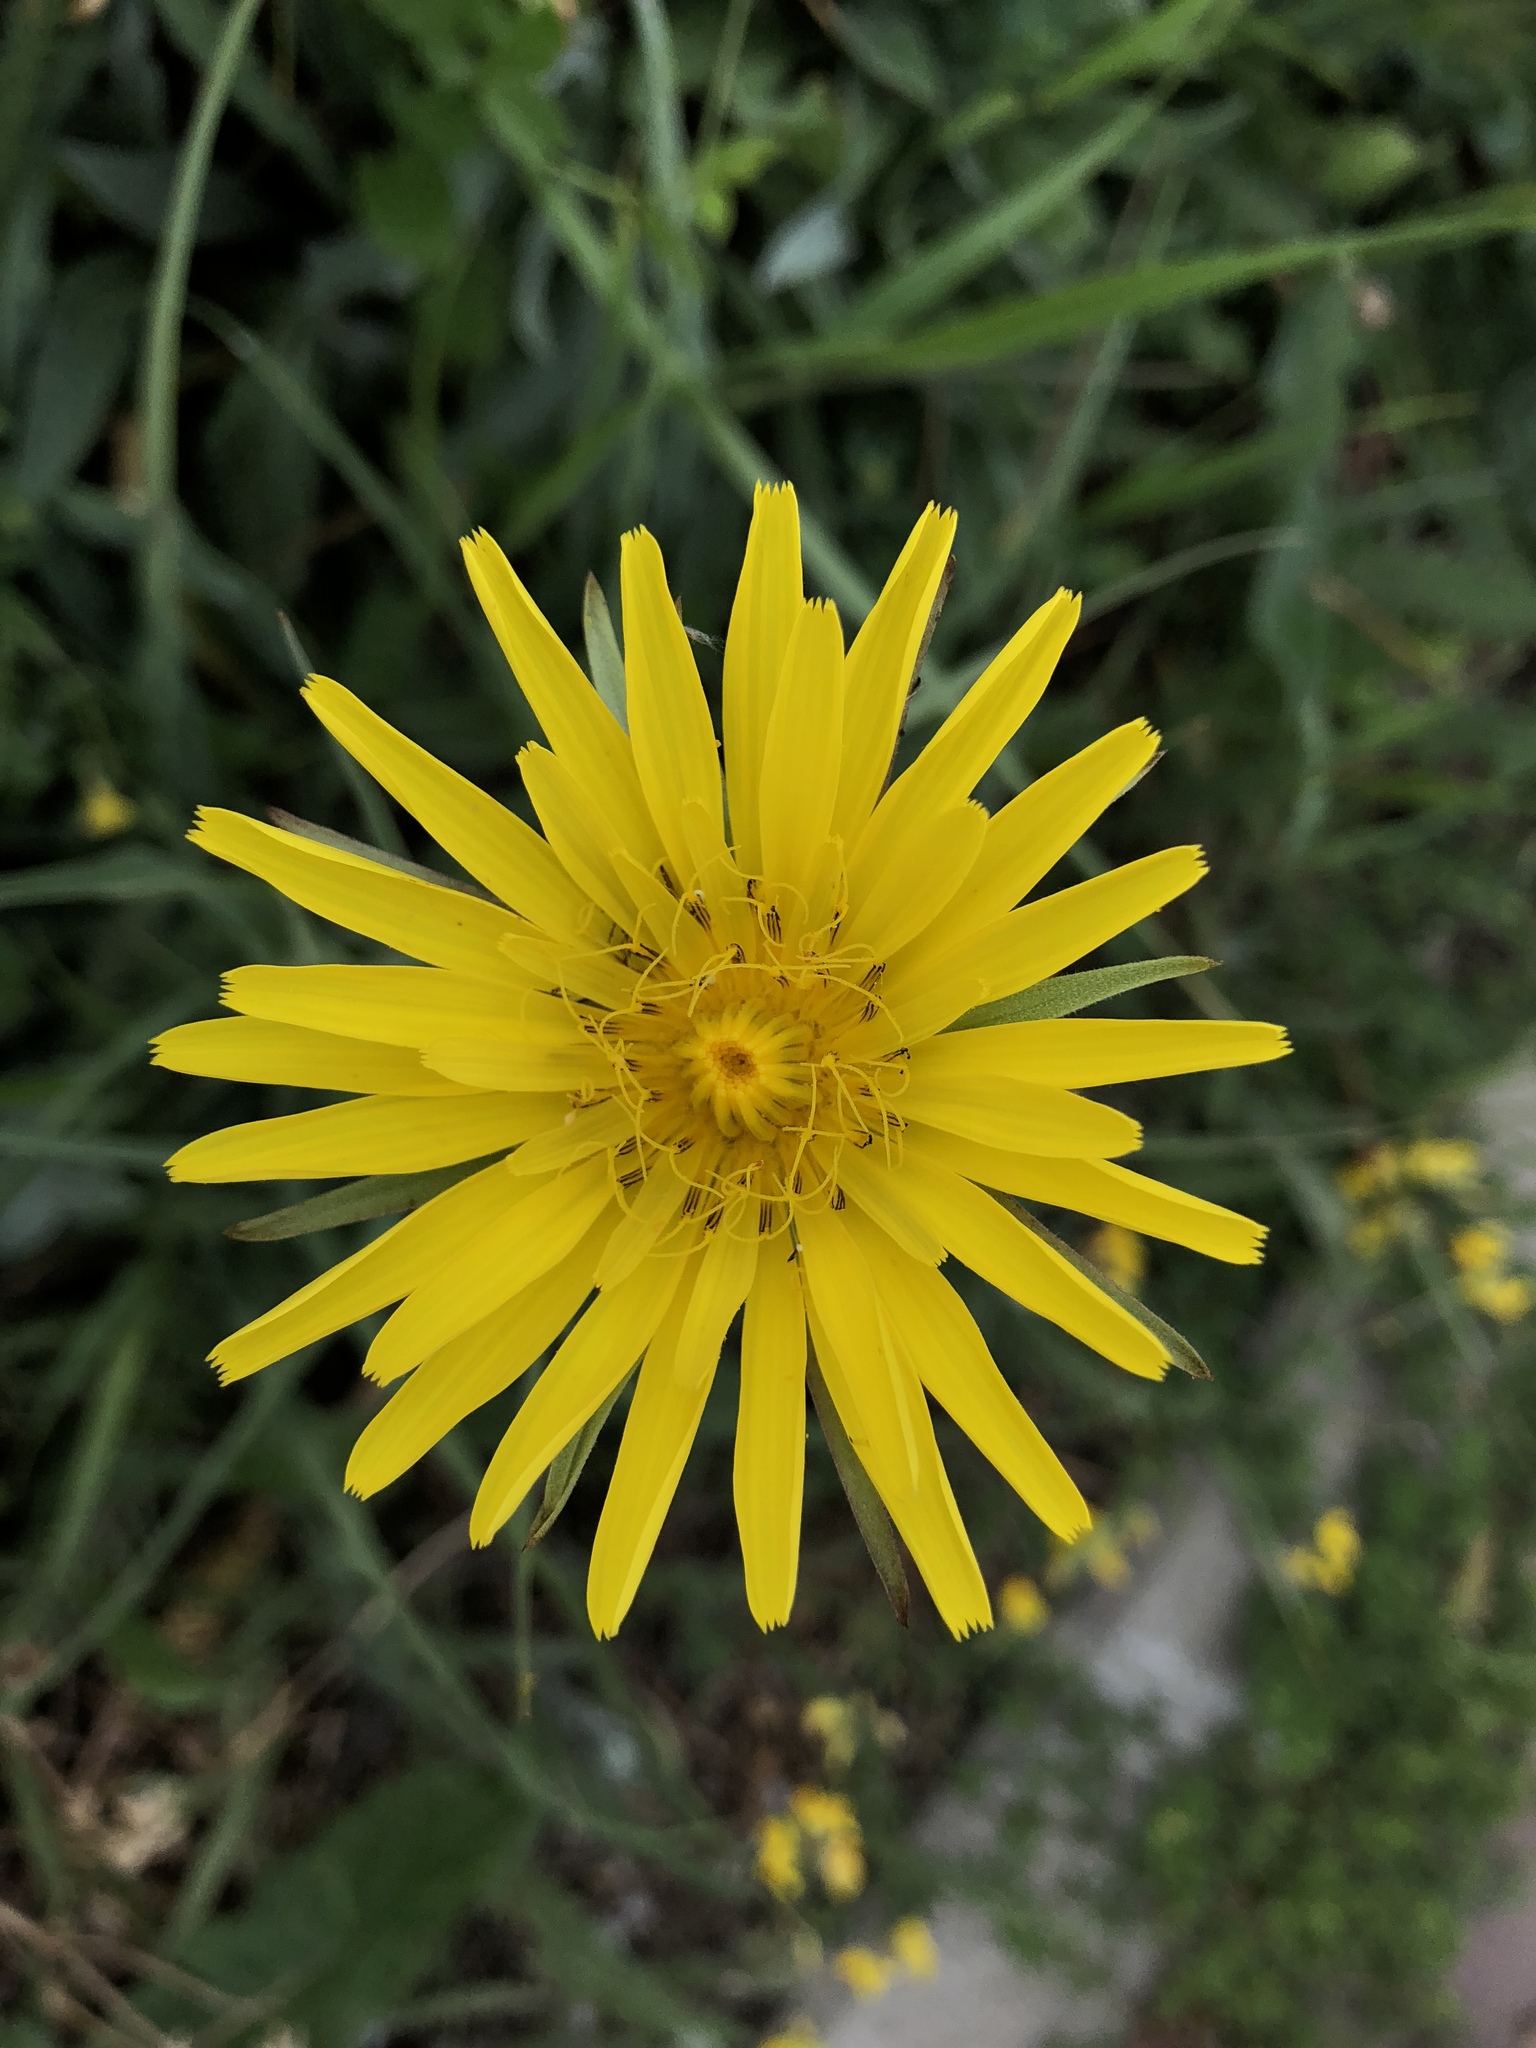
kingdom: Plantae
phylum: Tracheophyta
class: Magnoliopsida
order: Asterales
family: Asteraceae
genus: Tragopogon
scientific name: Tragopogon pratensis
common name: Goat's-beard
